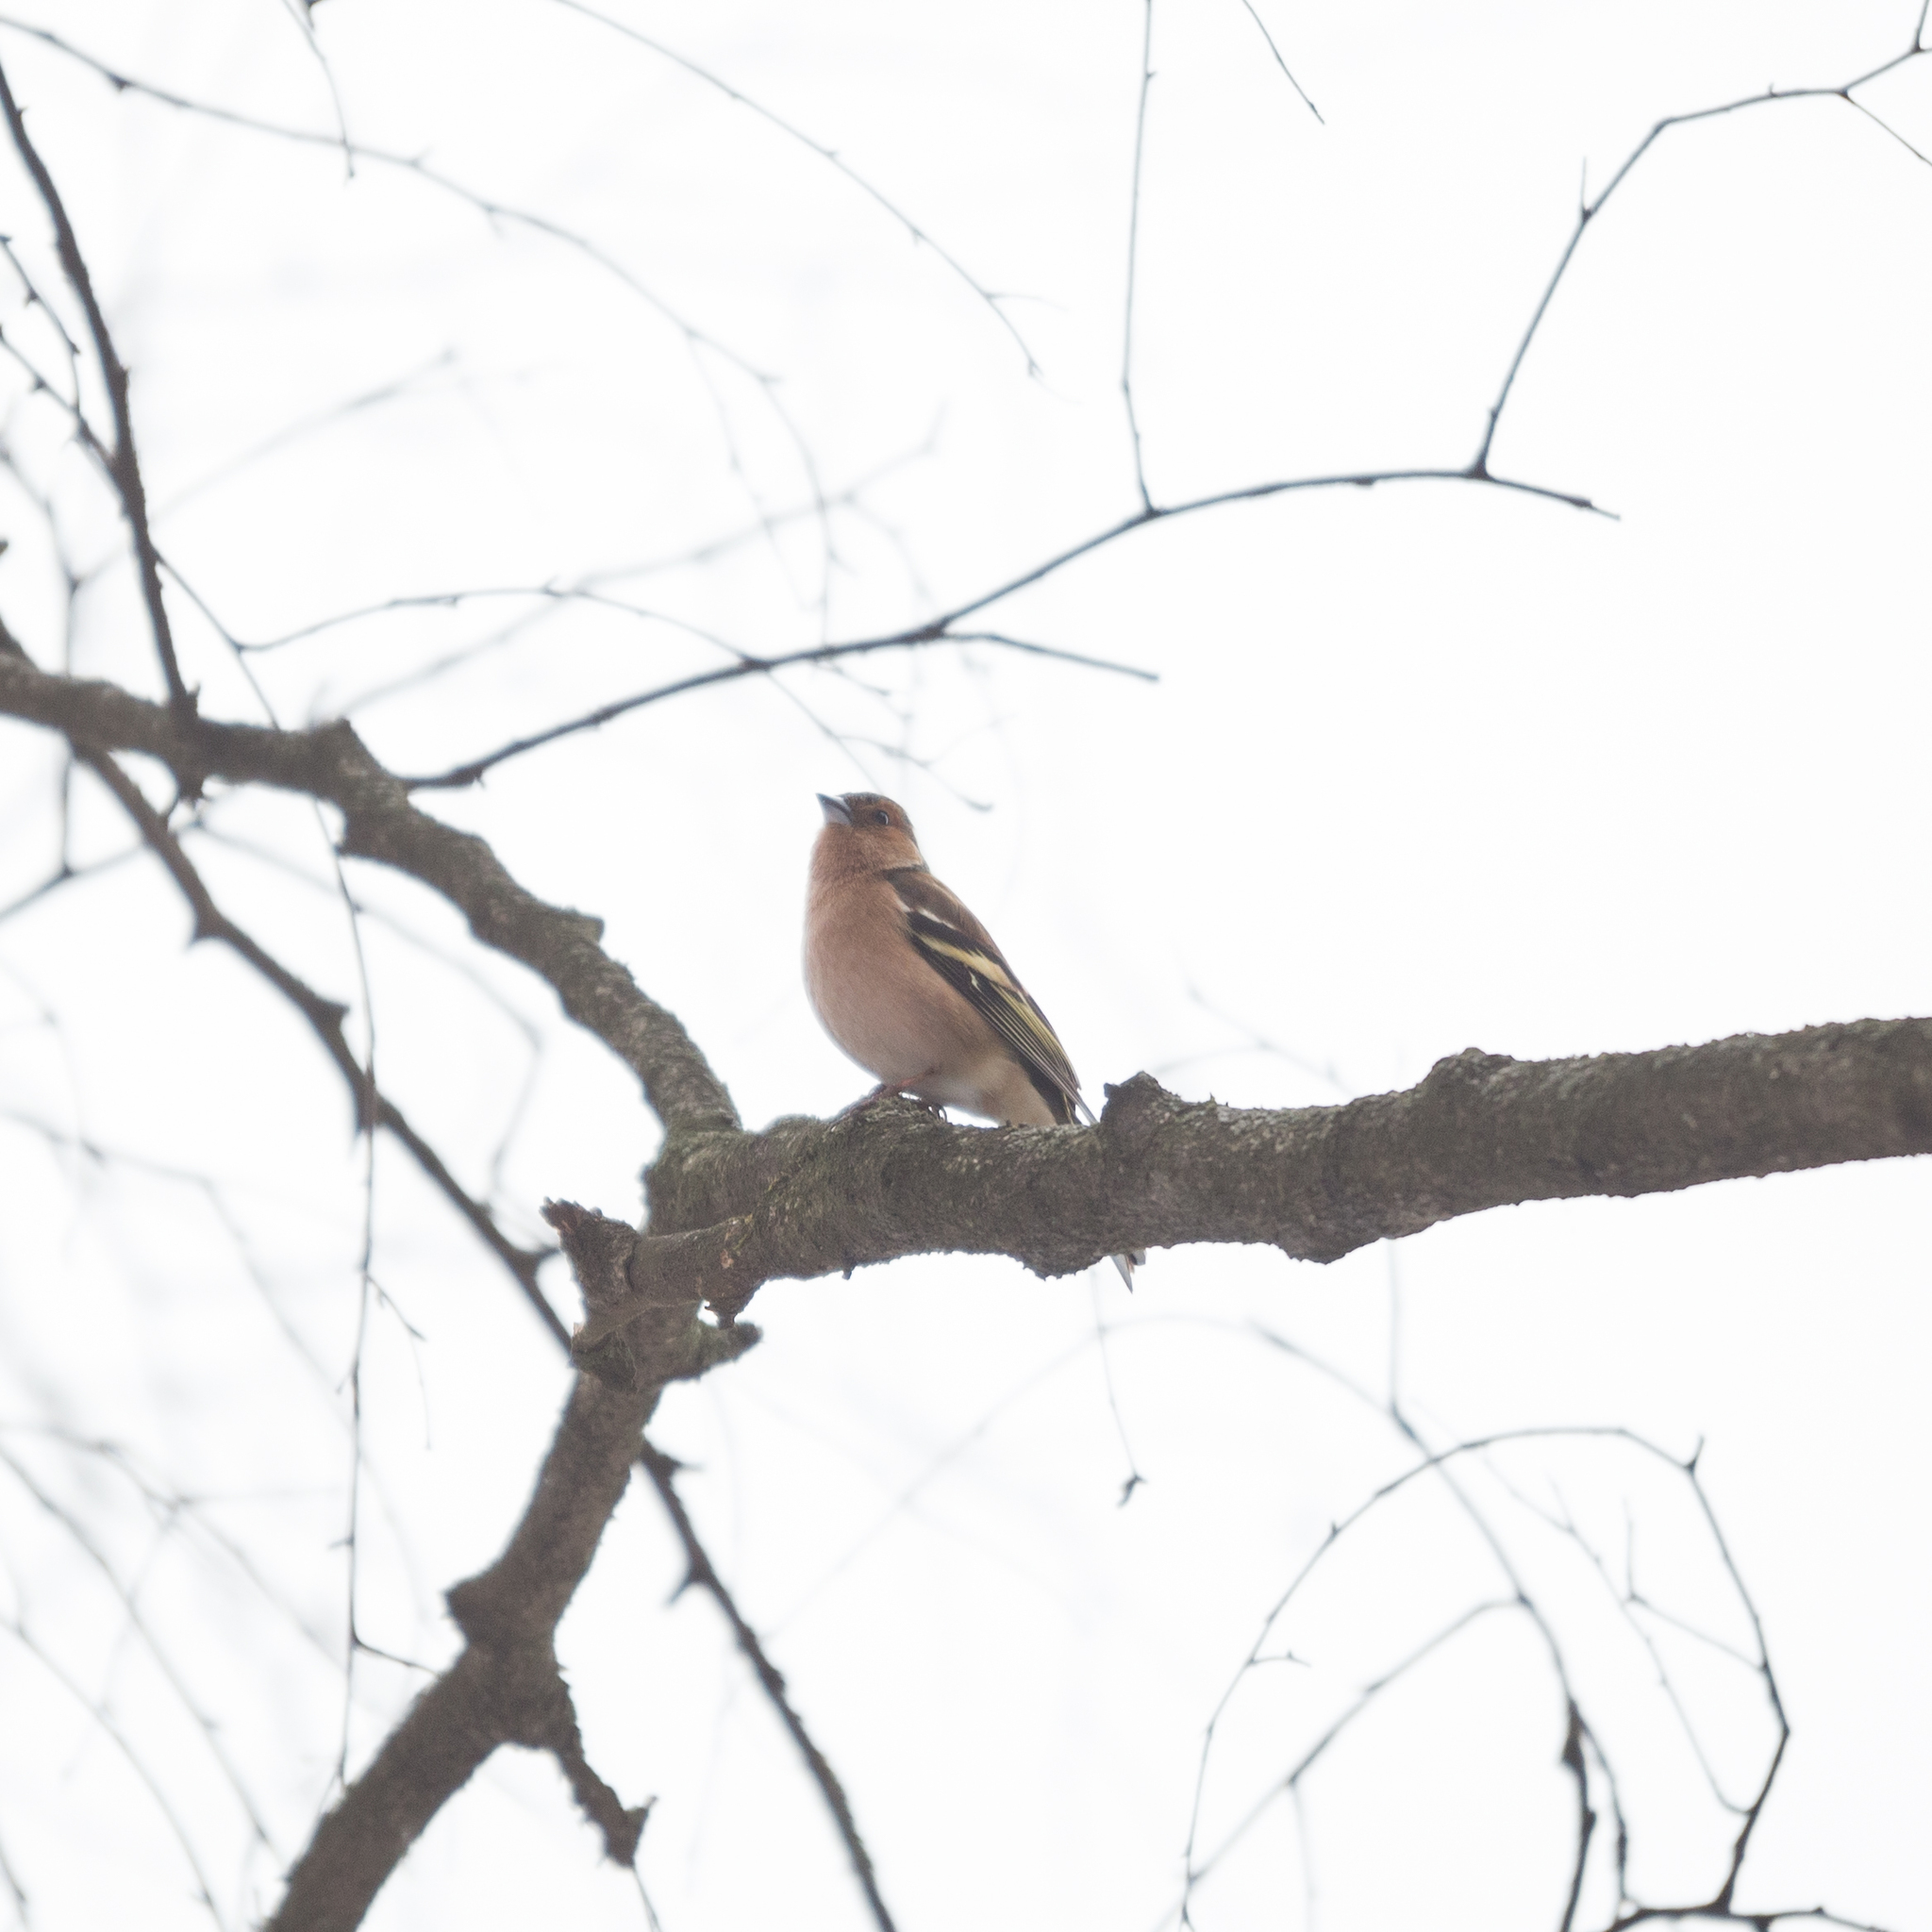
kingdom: Animalia
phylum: Chordata
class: Aves
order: Passeriformes
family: Fringillidae
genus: Fringilla
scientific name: Fringilla coelebs
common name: Common chaffinch
